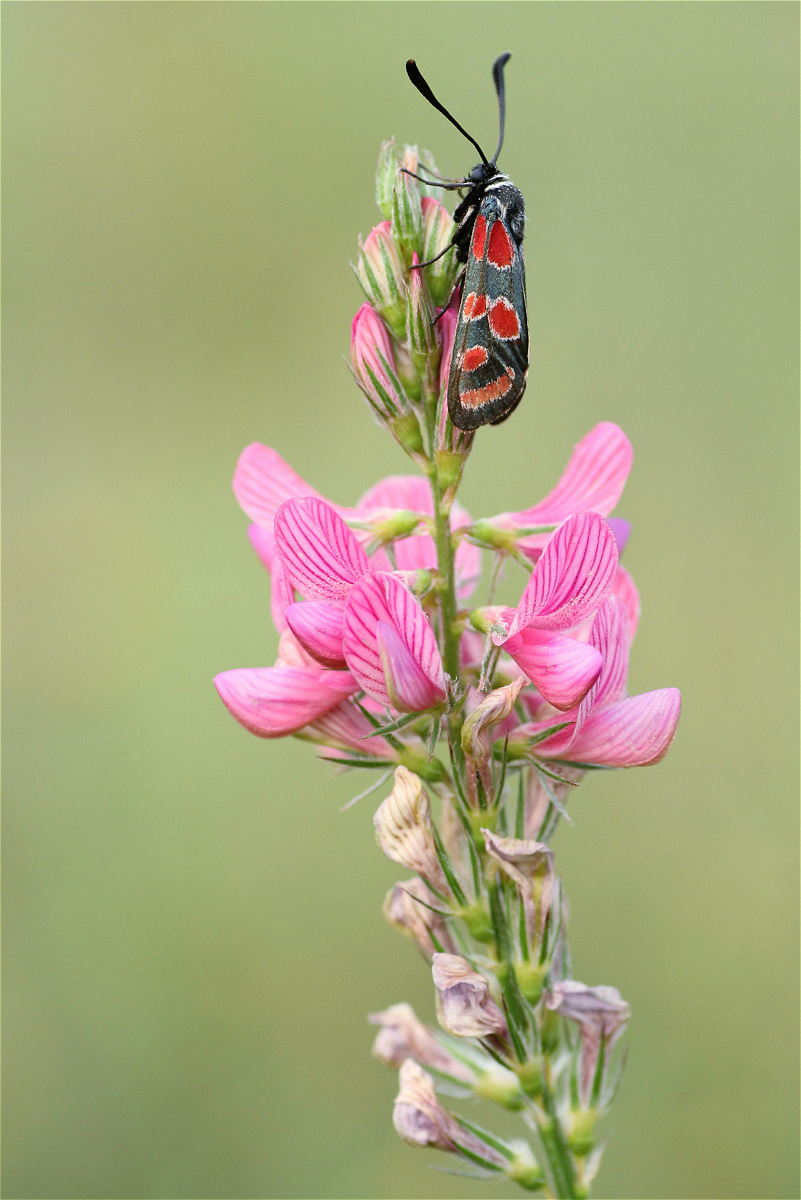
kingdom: Plantae
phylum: Tracheophyta
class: Magnoliopsida
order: Fabales
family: Fabaceae
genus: Onobrychis
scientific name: Onobrychis viciifolia
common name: Sainfoin
